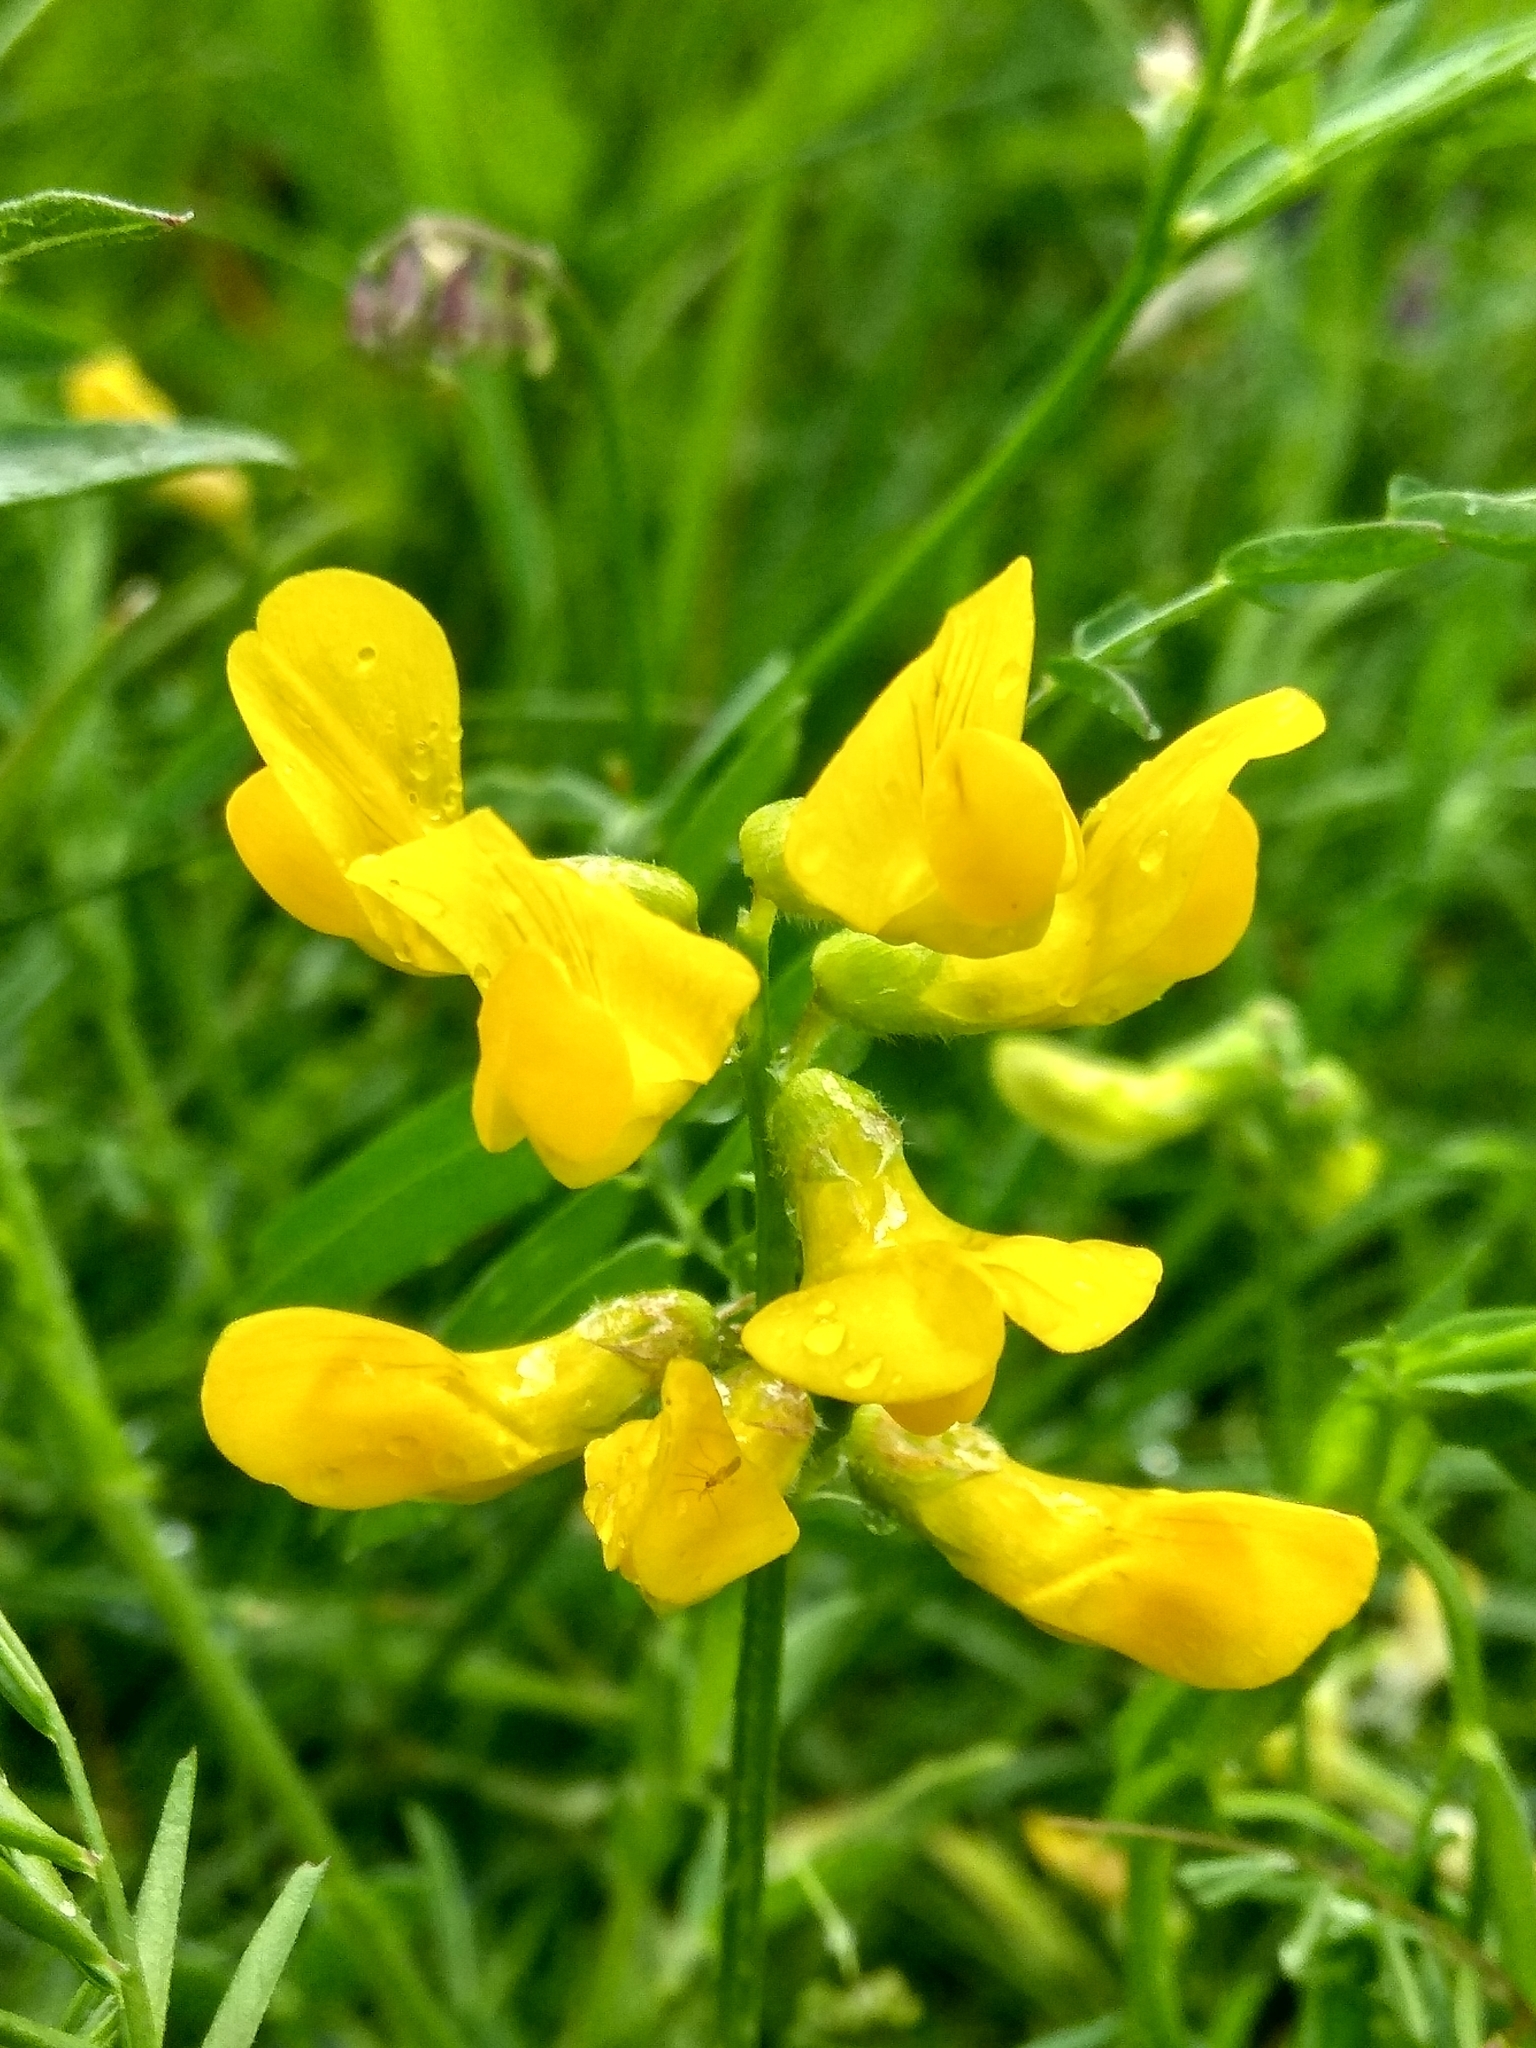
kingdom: Plantae
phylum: Tracheophyta
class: Magnoliopsida
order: Fabales
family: Fabaceae
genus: Lathyrus
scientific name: Lathyrus pratensis
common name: Meadow vetchling
